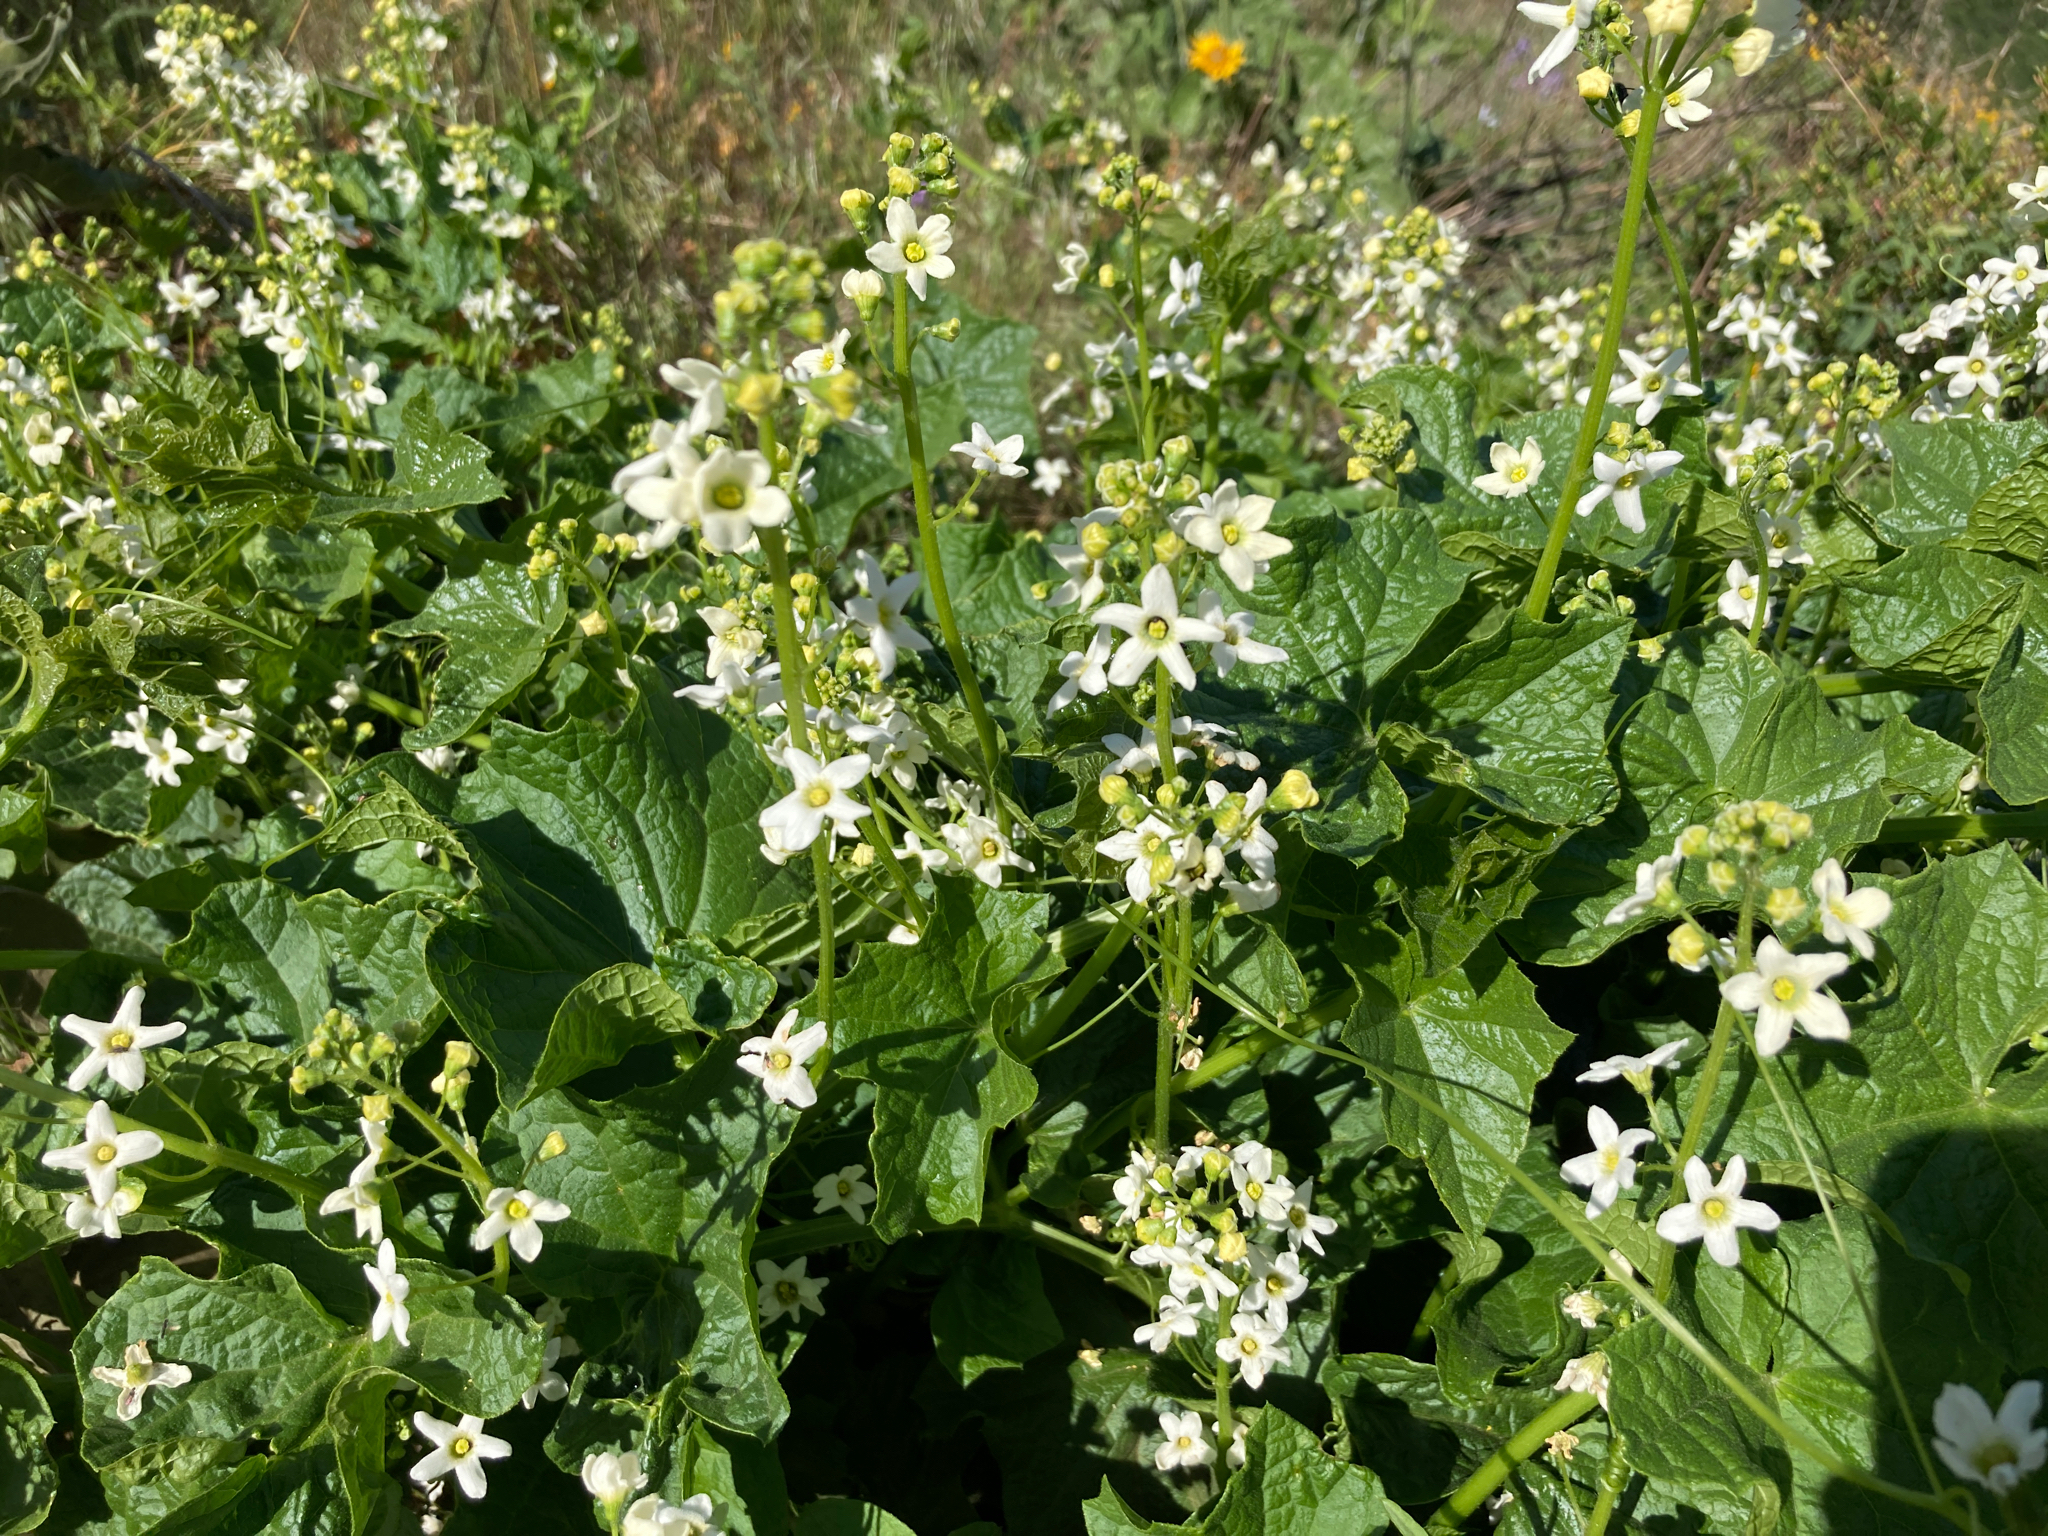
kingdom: Plantae
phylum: Tracheophyta
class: Magnoliopsida
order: Cucurbitales
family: Cucurbitaceae
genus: Marah
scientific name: Marah oregana
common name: Coastal manroot
